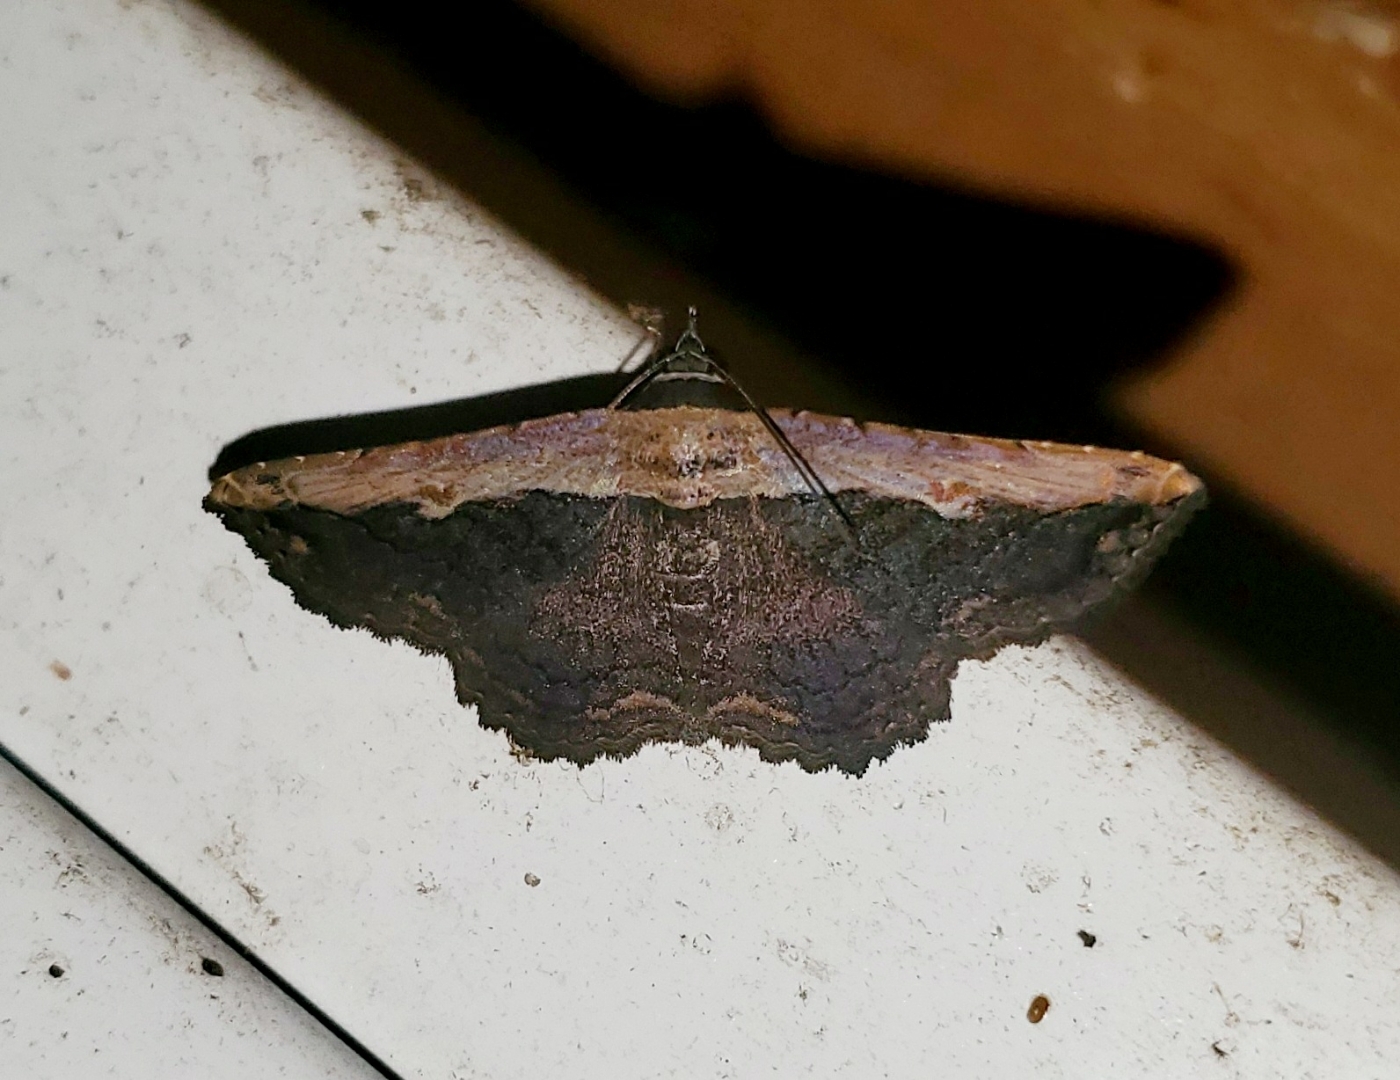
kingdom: Animalia
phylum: Arthropoda
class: Insecta
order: Lepidoptera
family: Erebidae
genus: Selenisa
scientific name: Selenisa sueroides
